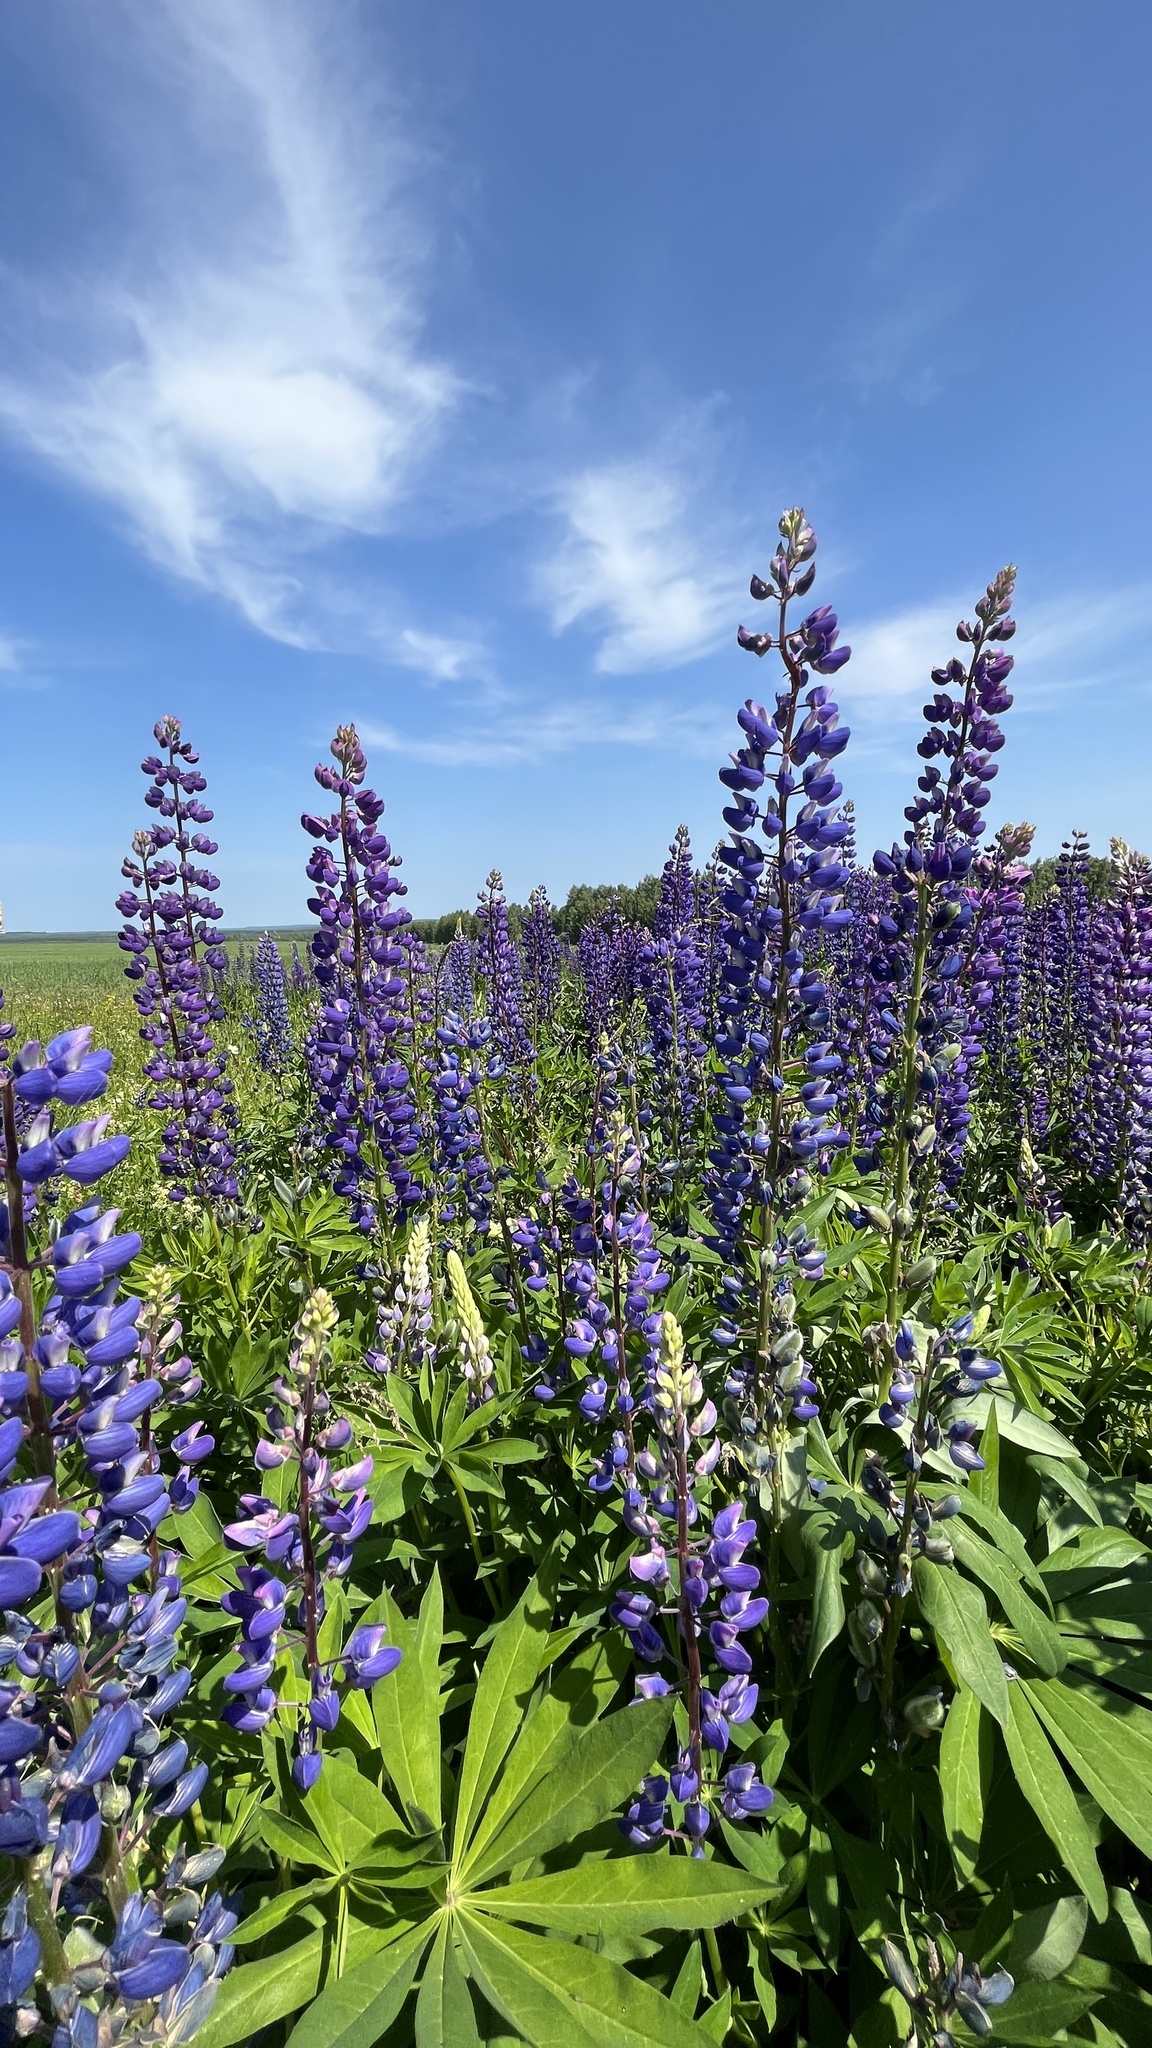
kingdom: Plantae
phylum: Tracheophyta
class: Magnoliopsida
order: Fabales
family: Fabaceae
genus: Lupinus
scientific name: Lupinus polyphyllus
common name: Garden lupin
